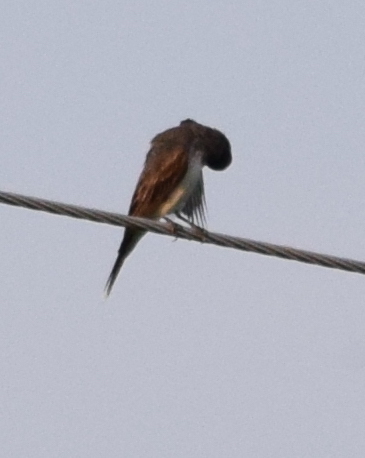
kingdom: Animalia
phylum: Chordata
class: Aves
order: Passeriformes
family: Tyrannidae
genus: Tyrannus
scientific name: Tyrannus tyrannus
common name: Eastern kingbird
